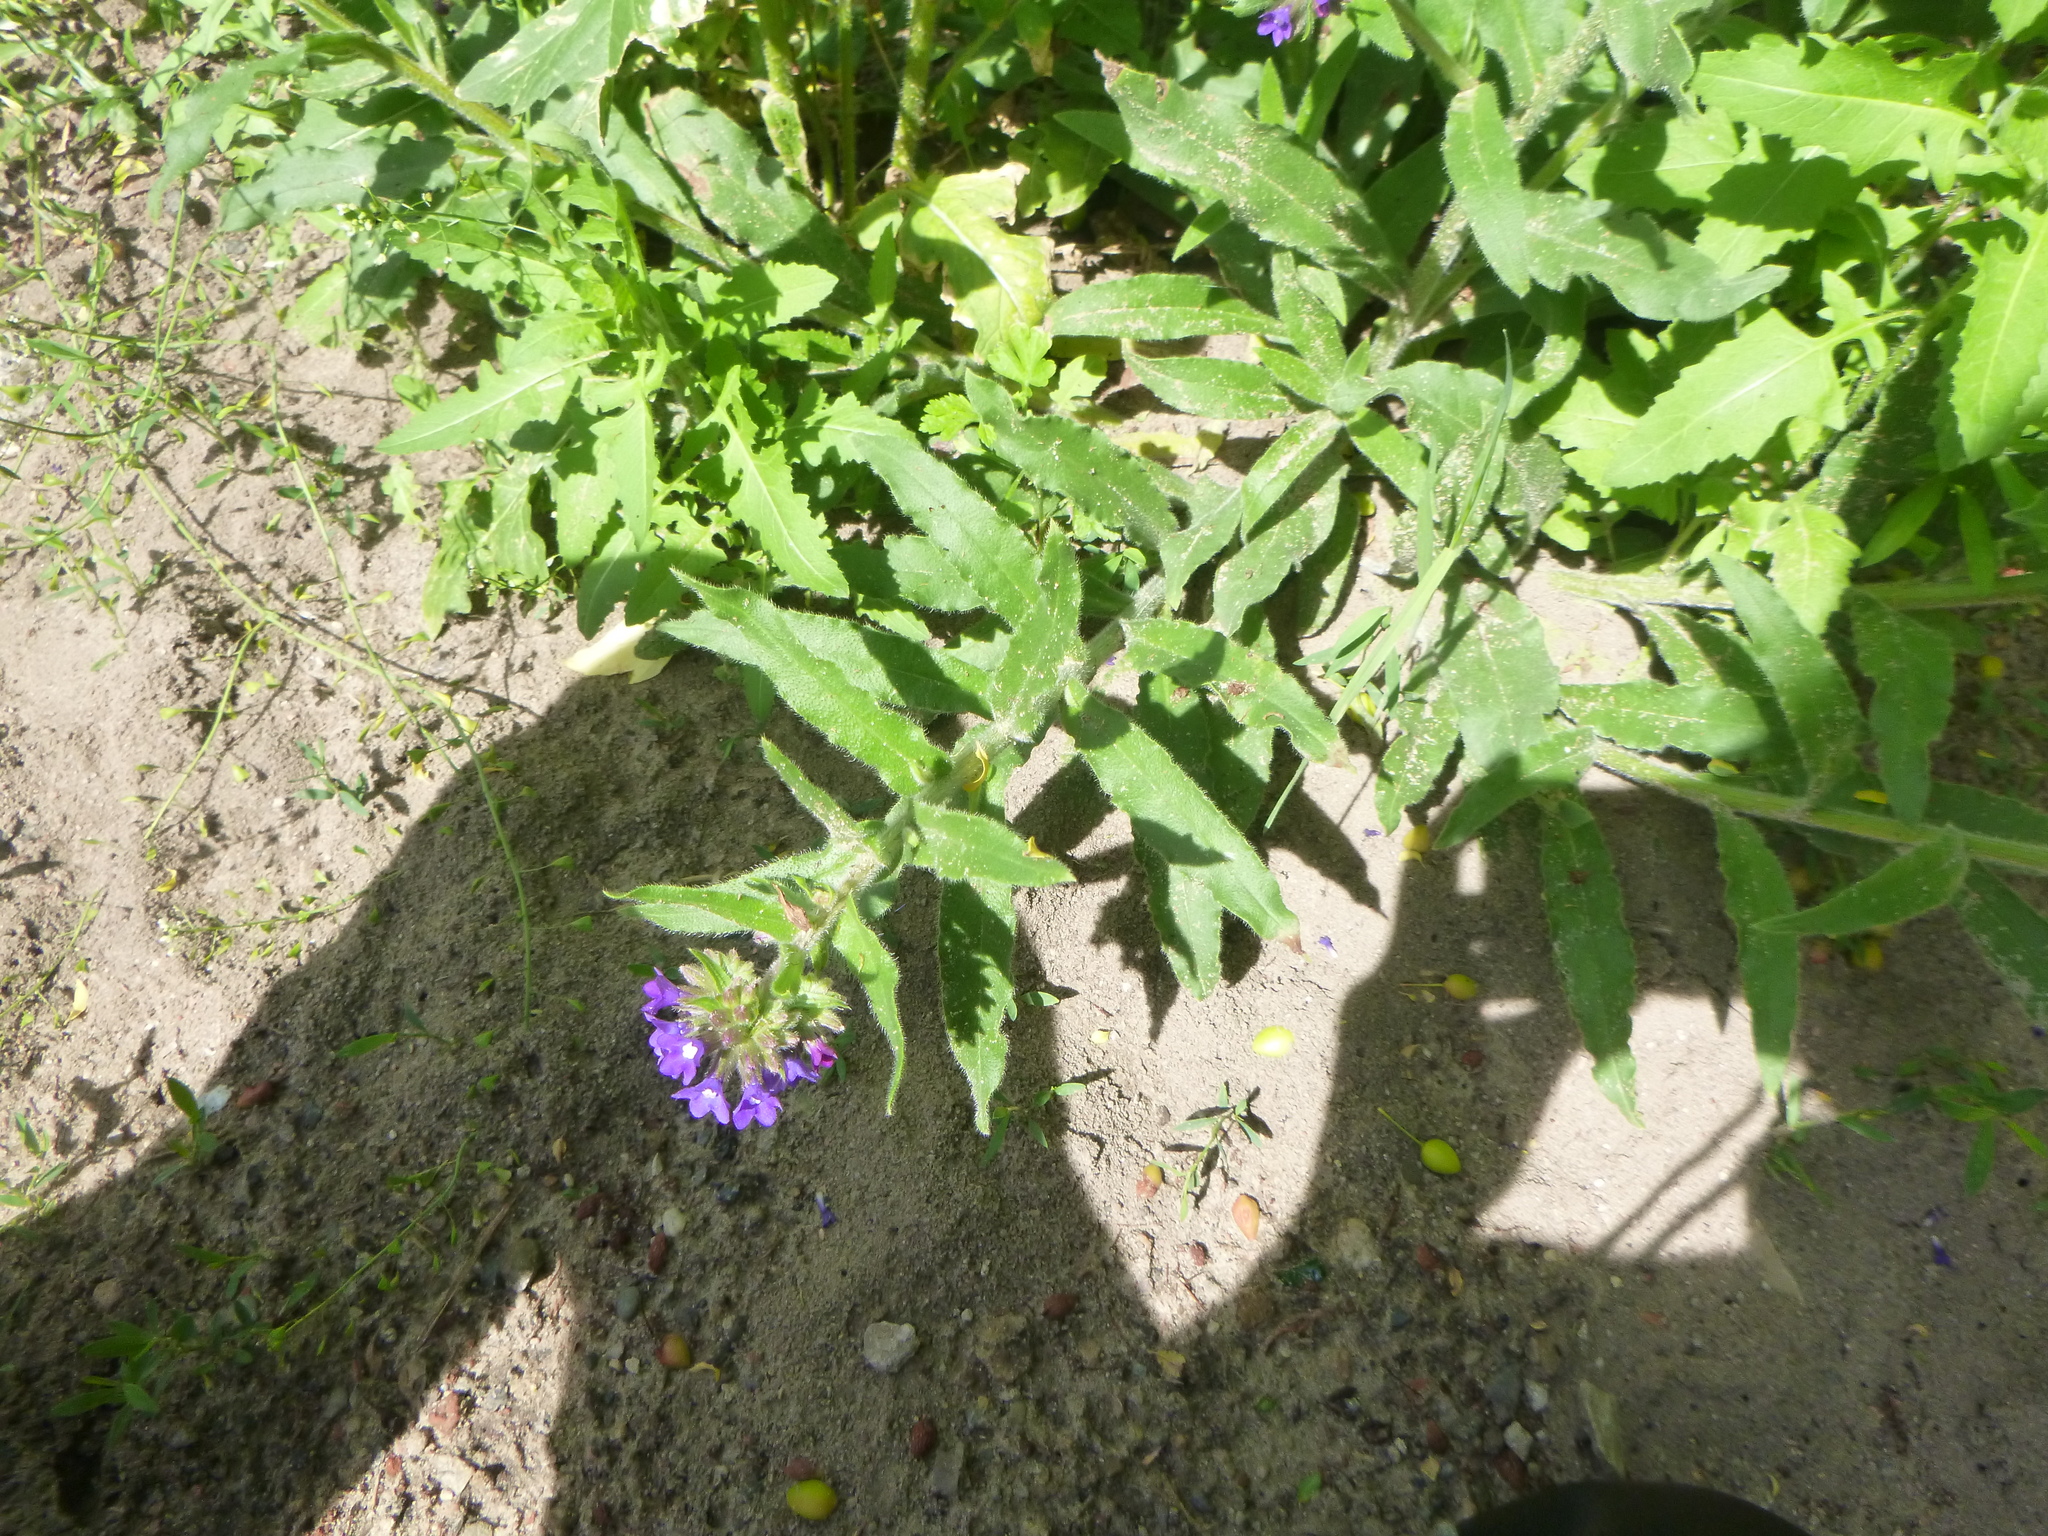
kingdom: Plantae
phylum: Tracheophyta
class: Magnoliopsida
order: Boraginales
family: Boraginaceae
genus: Anchusa
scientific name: Anchusa officinalis
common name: Alkanet
